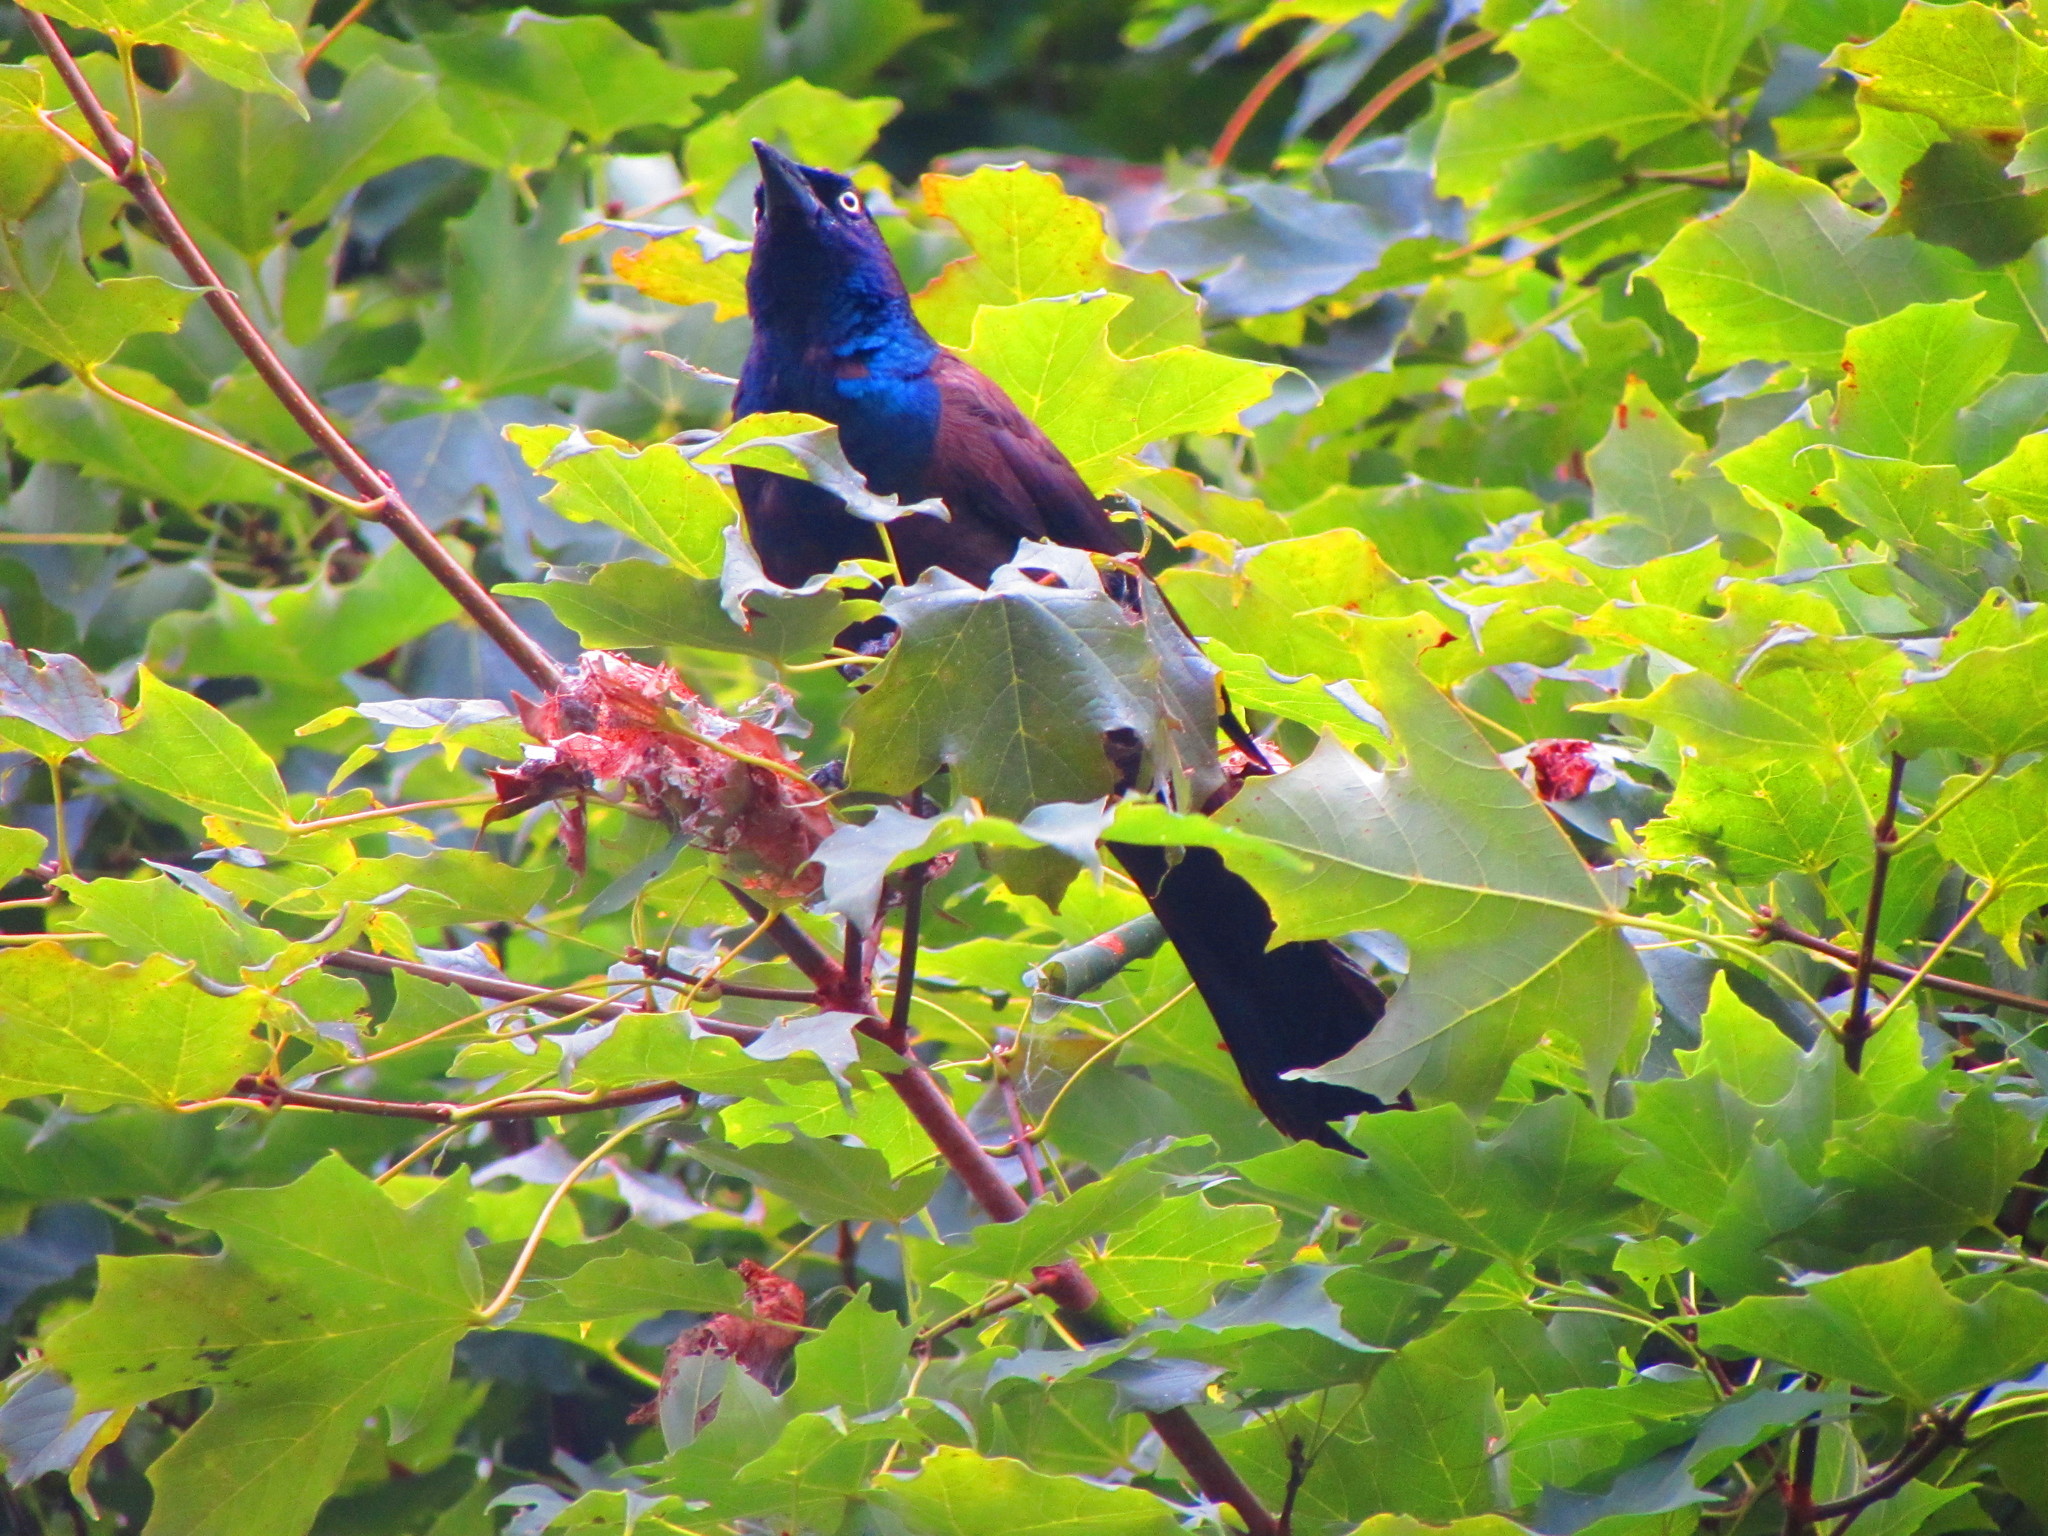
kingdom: Animalia
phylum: Chordata
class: Aves
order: Passeriformes
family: Icteridae
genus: Quiscalus
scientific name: Quiscalus quiscula
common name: Common grackle
